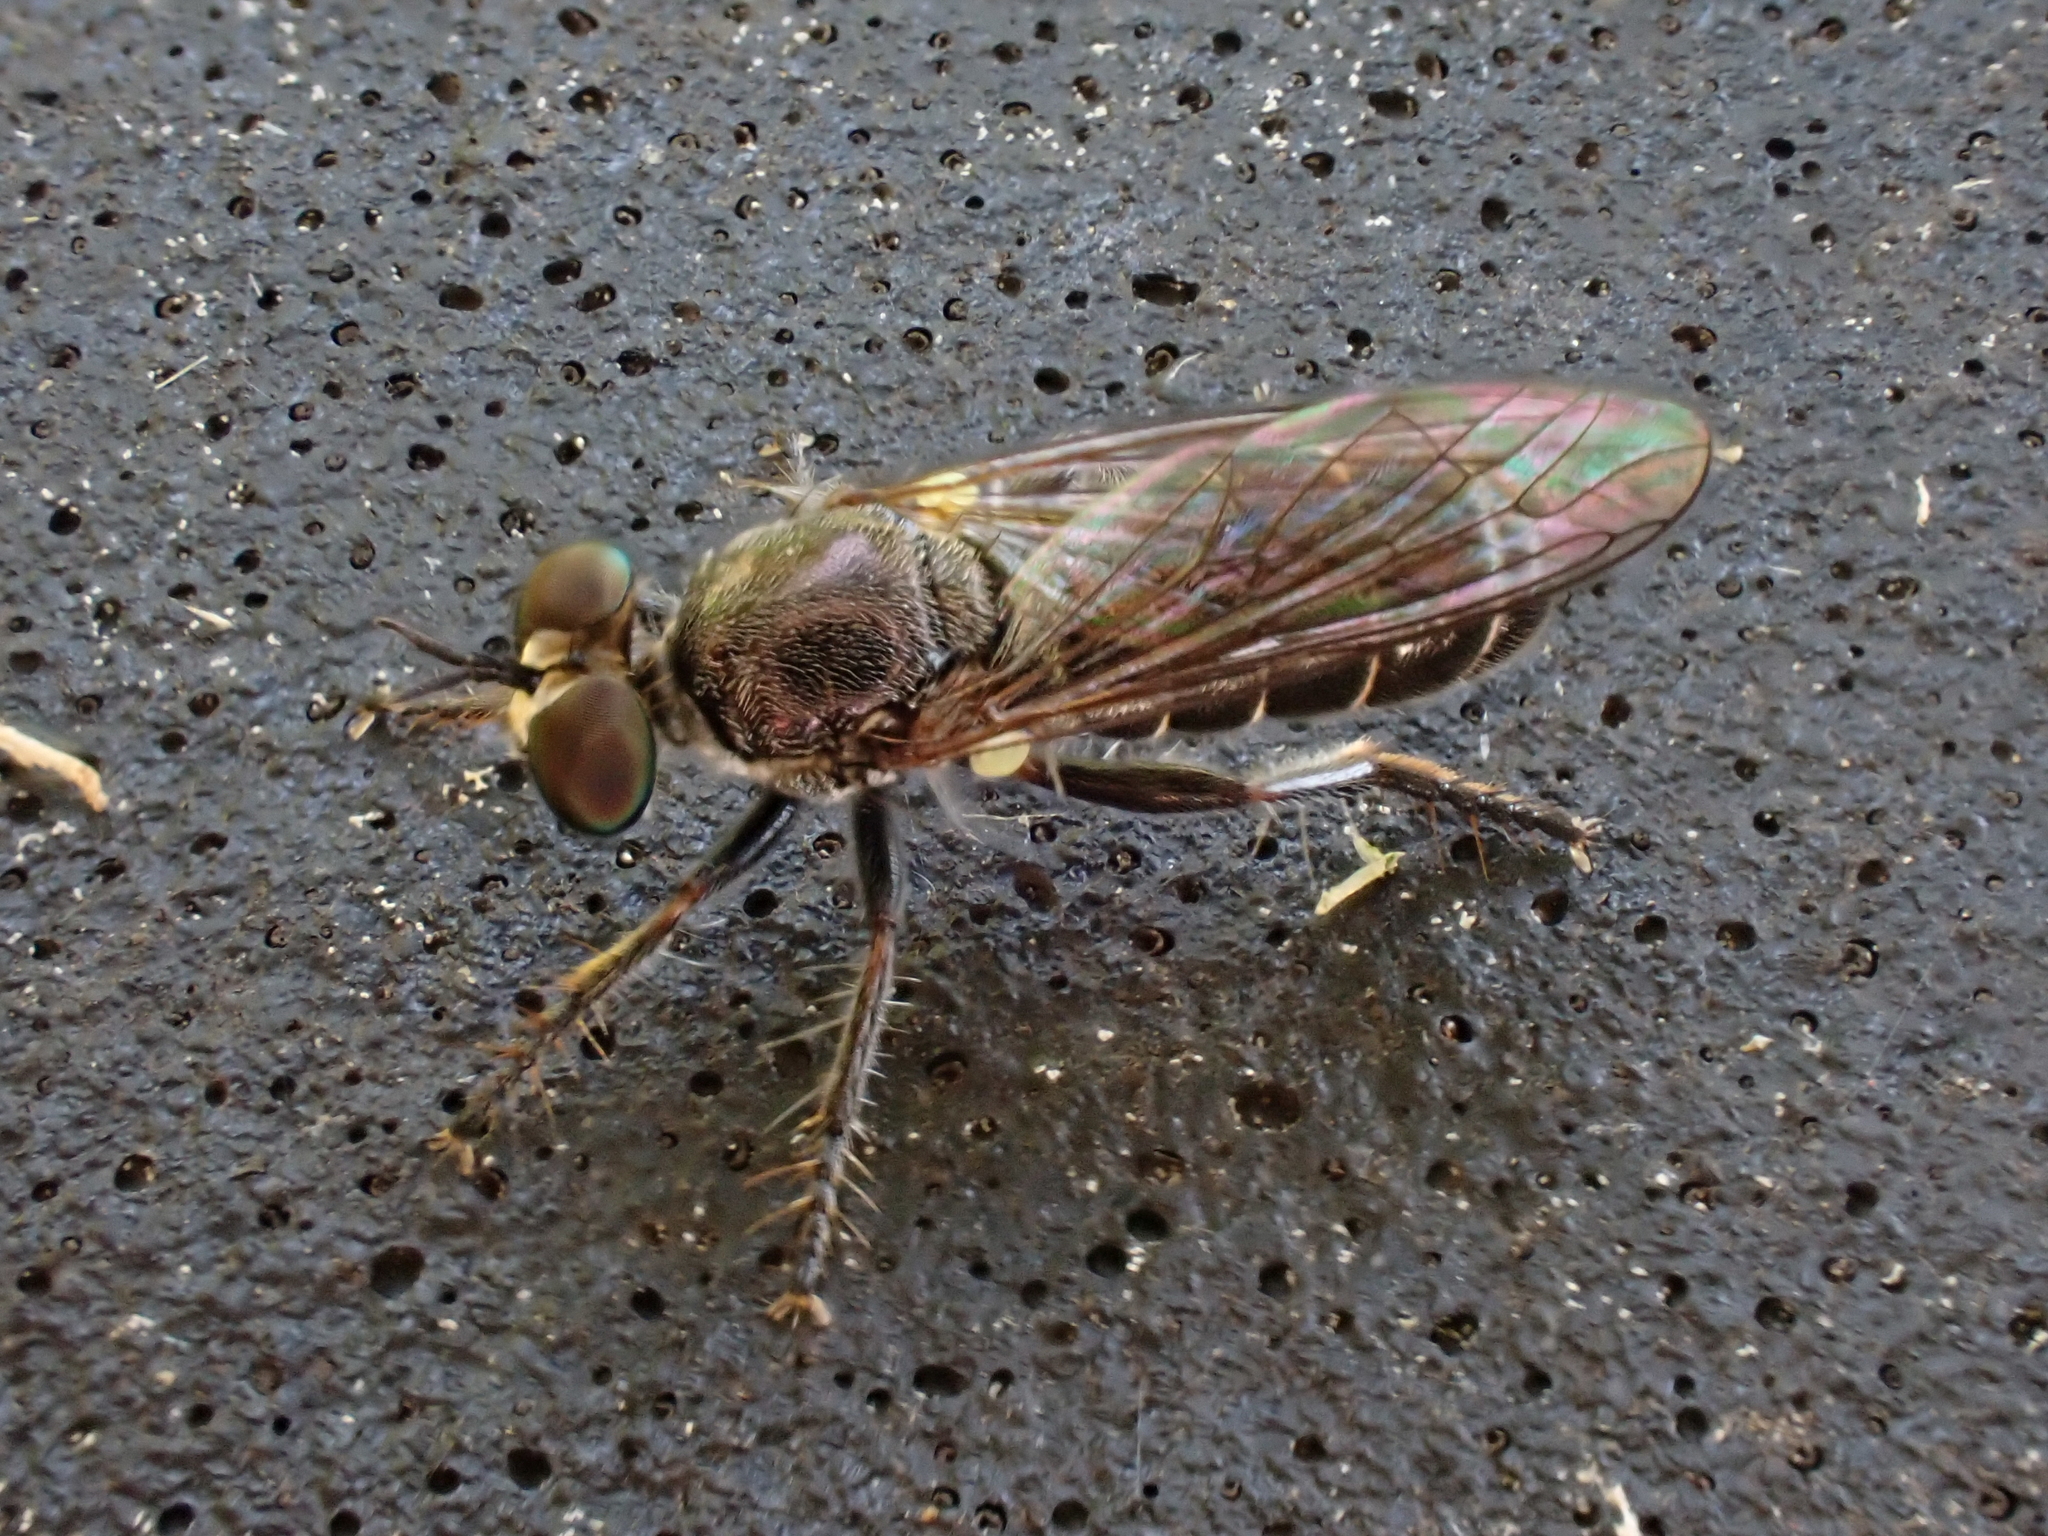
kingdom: Animalia
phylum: Arthropoda
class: Insecta
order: Diptera
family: Asilidae
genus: Atomosia
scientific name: Atomosia puella
